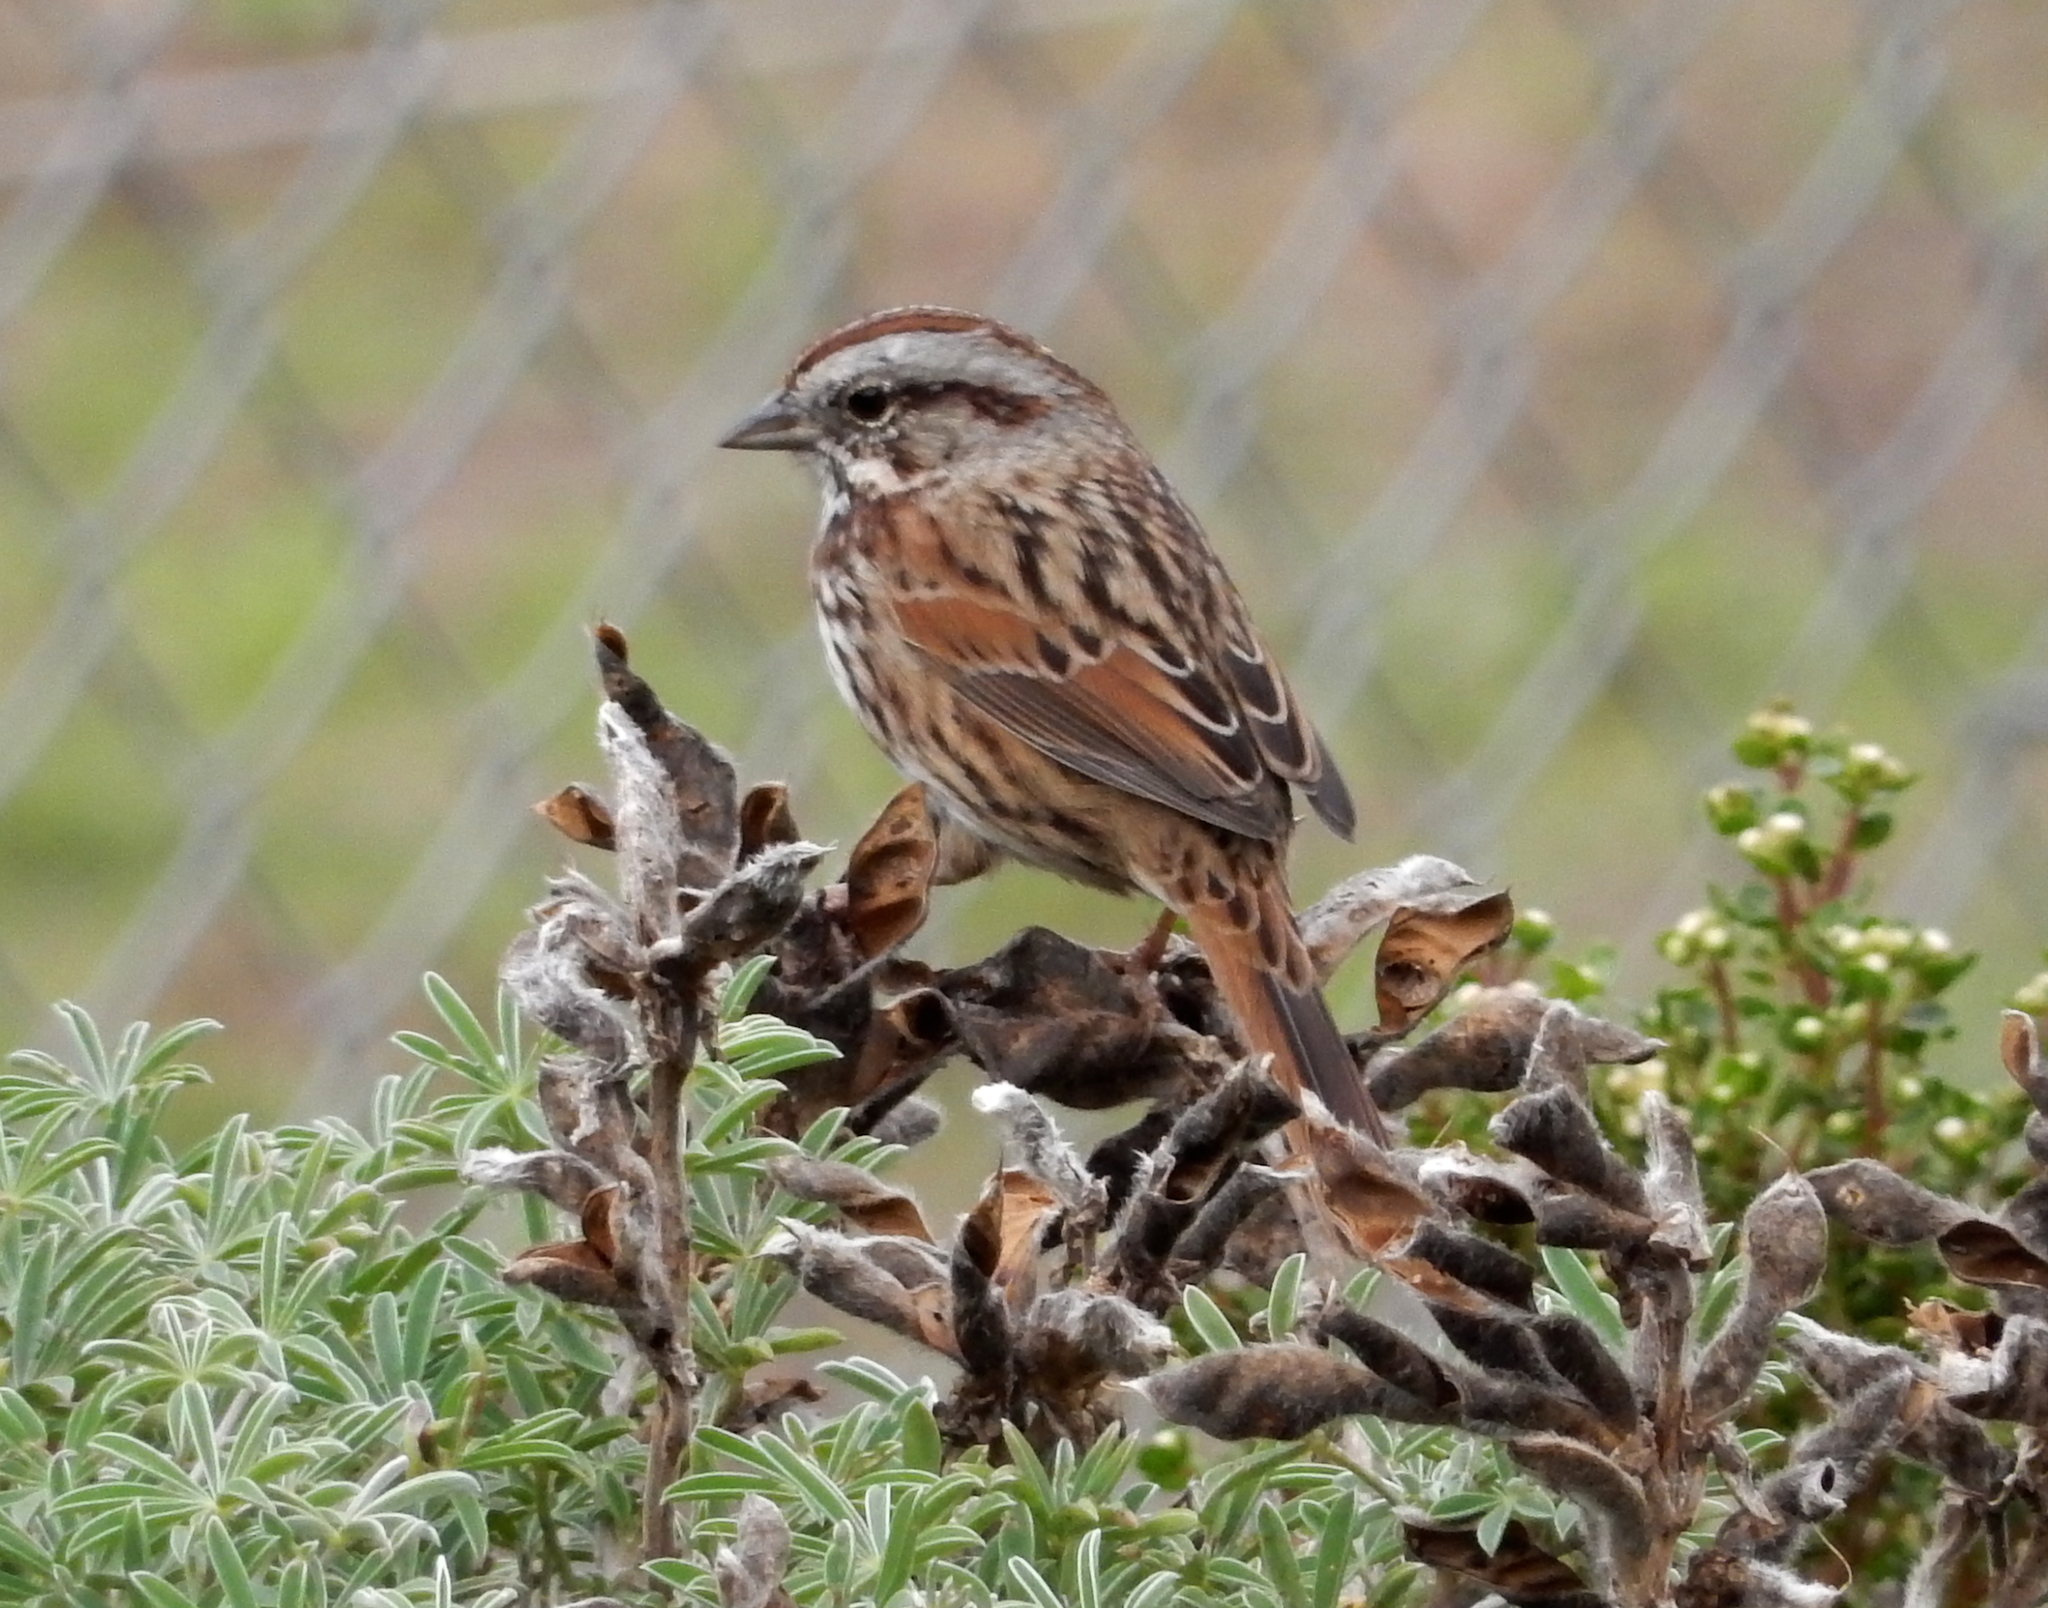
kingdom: Animalia
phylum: Chordata
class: Aves
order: Passeriformes
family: Passerellidae
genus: Melospiza
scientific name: Melospiza melodia
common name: Song sparrow
